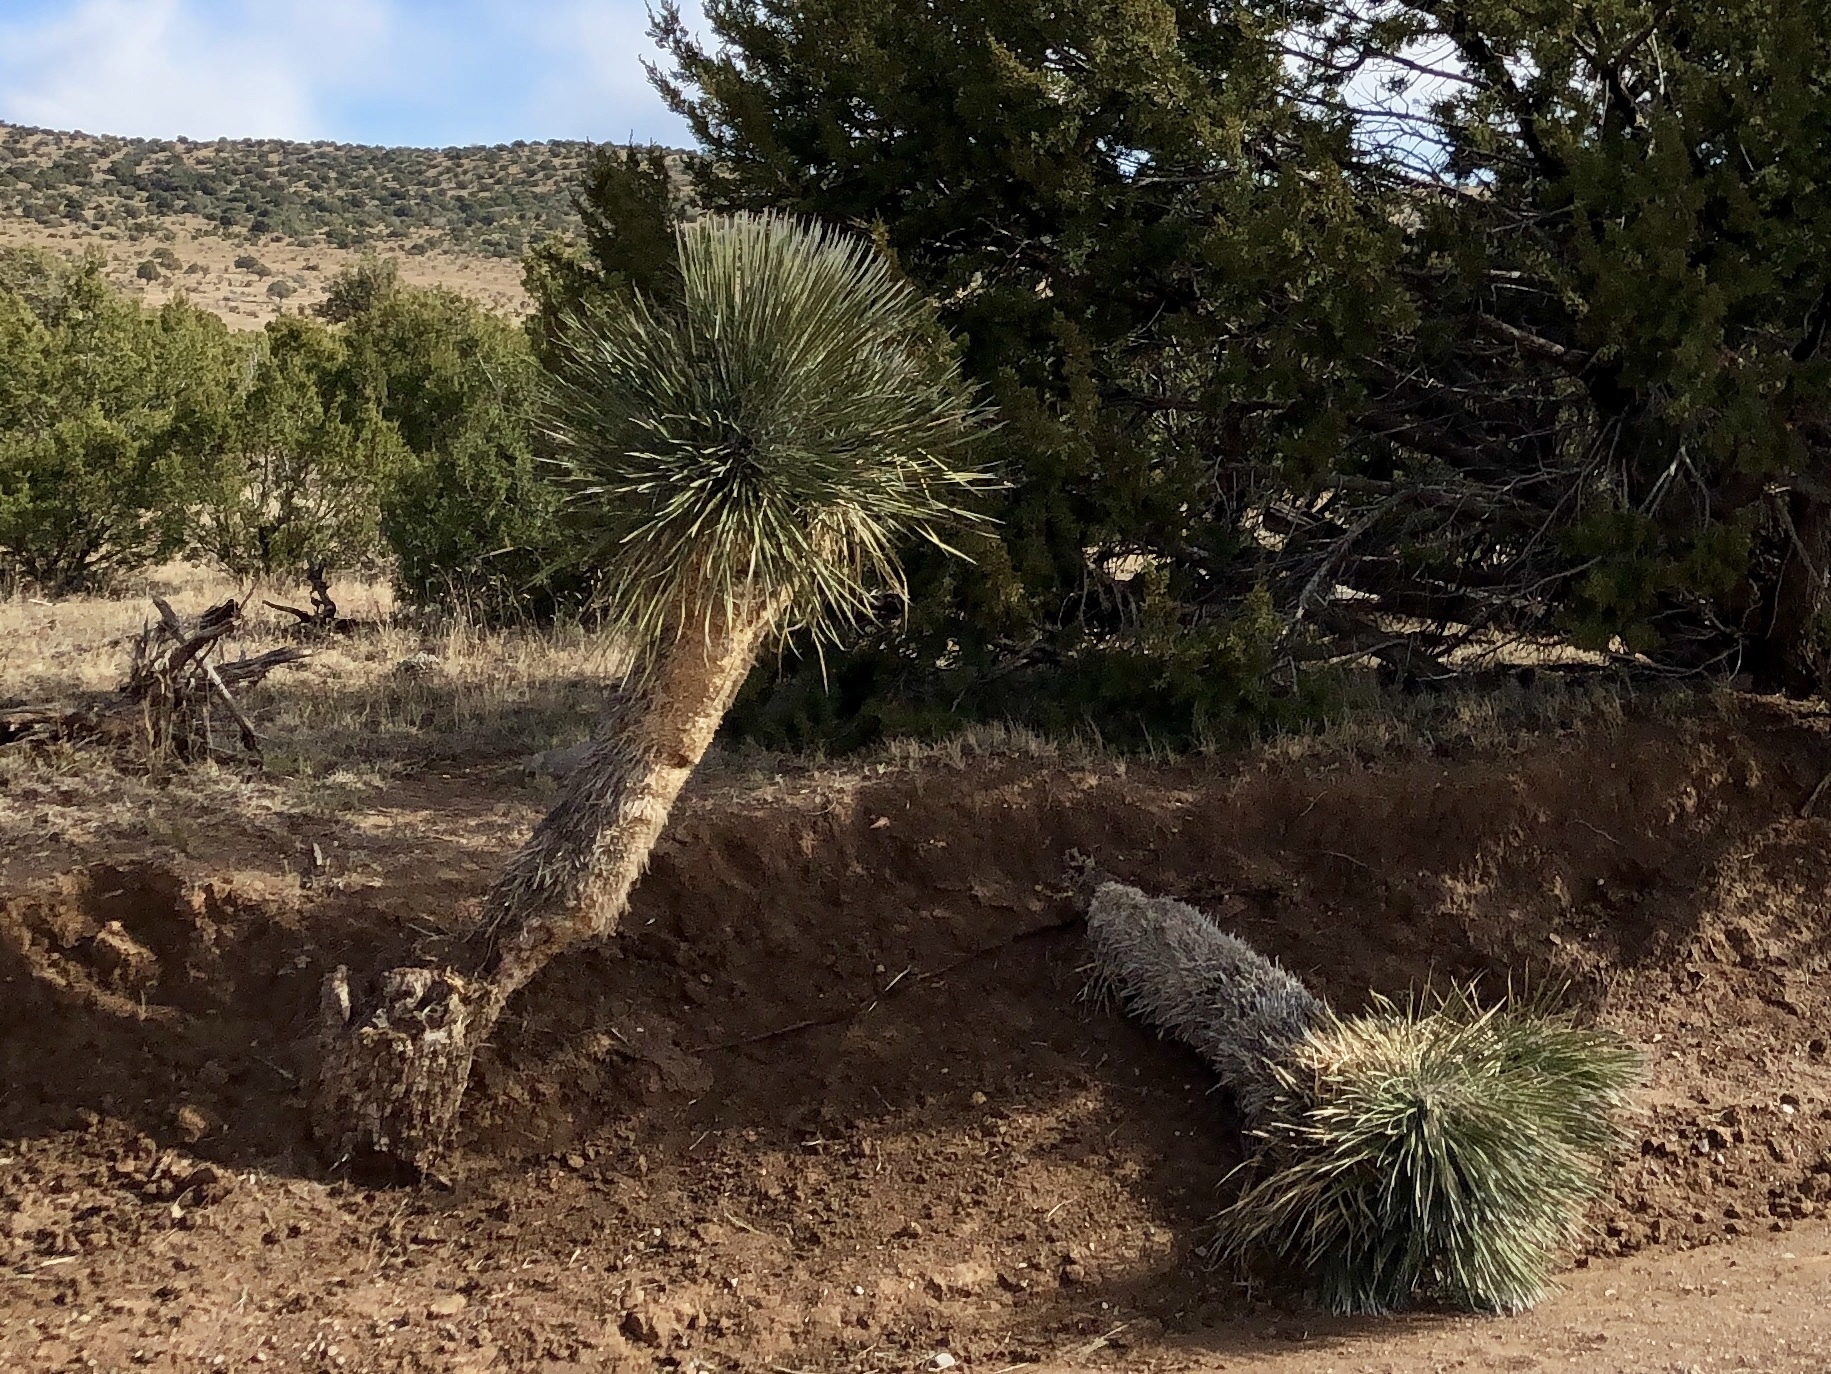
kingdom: Plantae
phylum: Tracheophyta
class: Liliopsida
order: Asparagales
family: Asparagaceae
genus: Yucca
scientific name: Yucca elata
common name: Palmella
